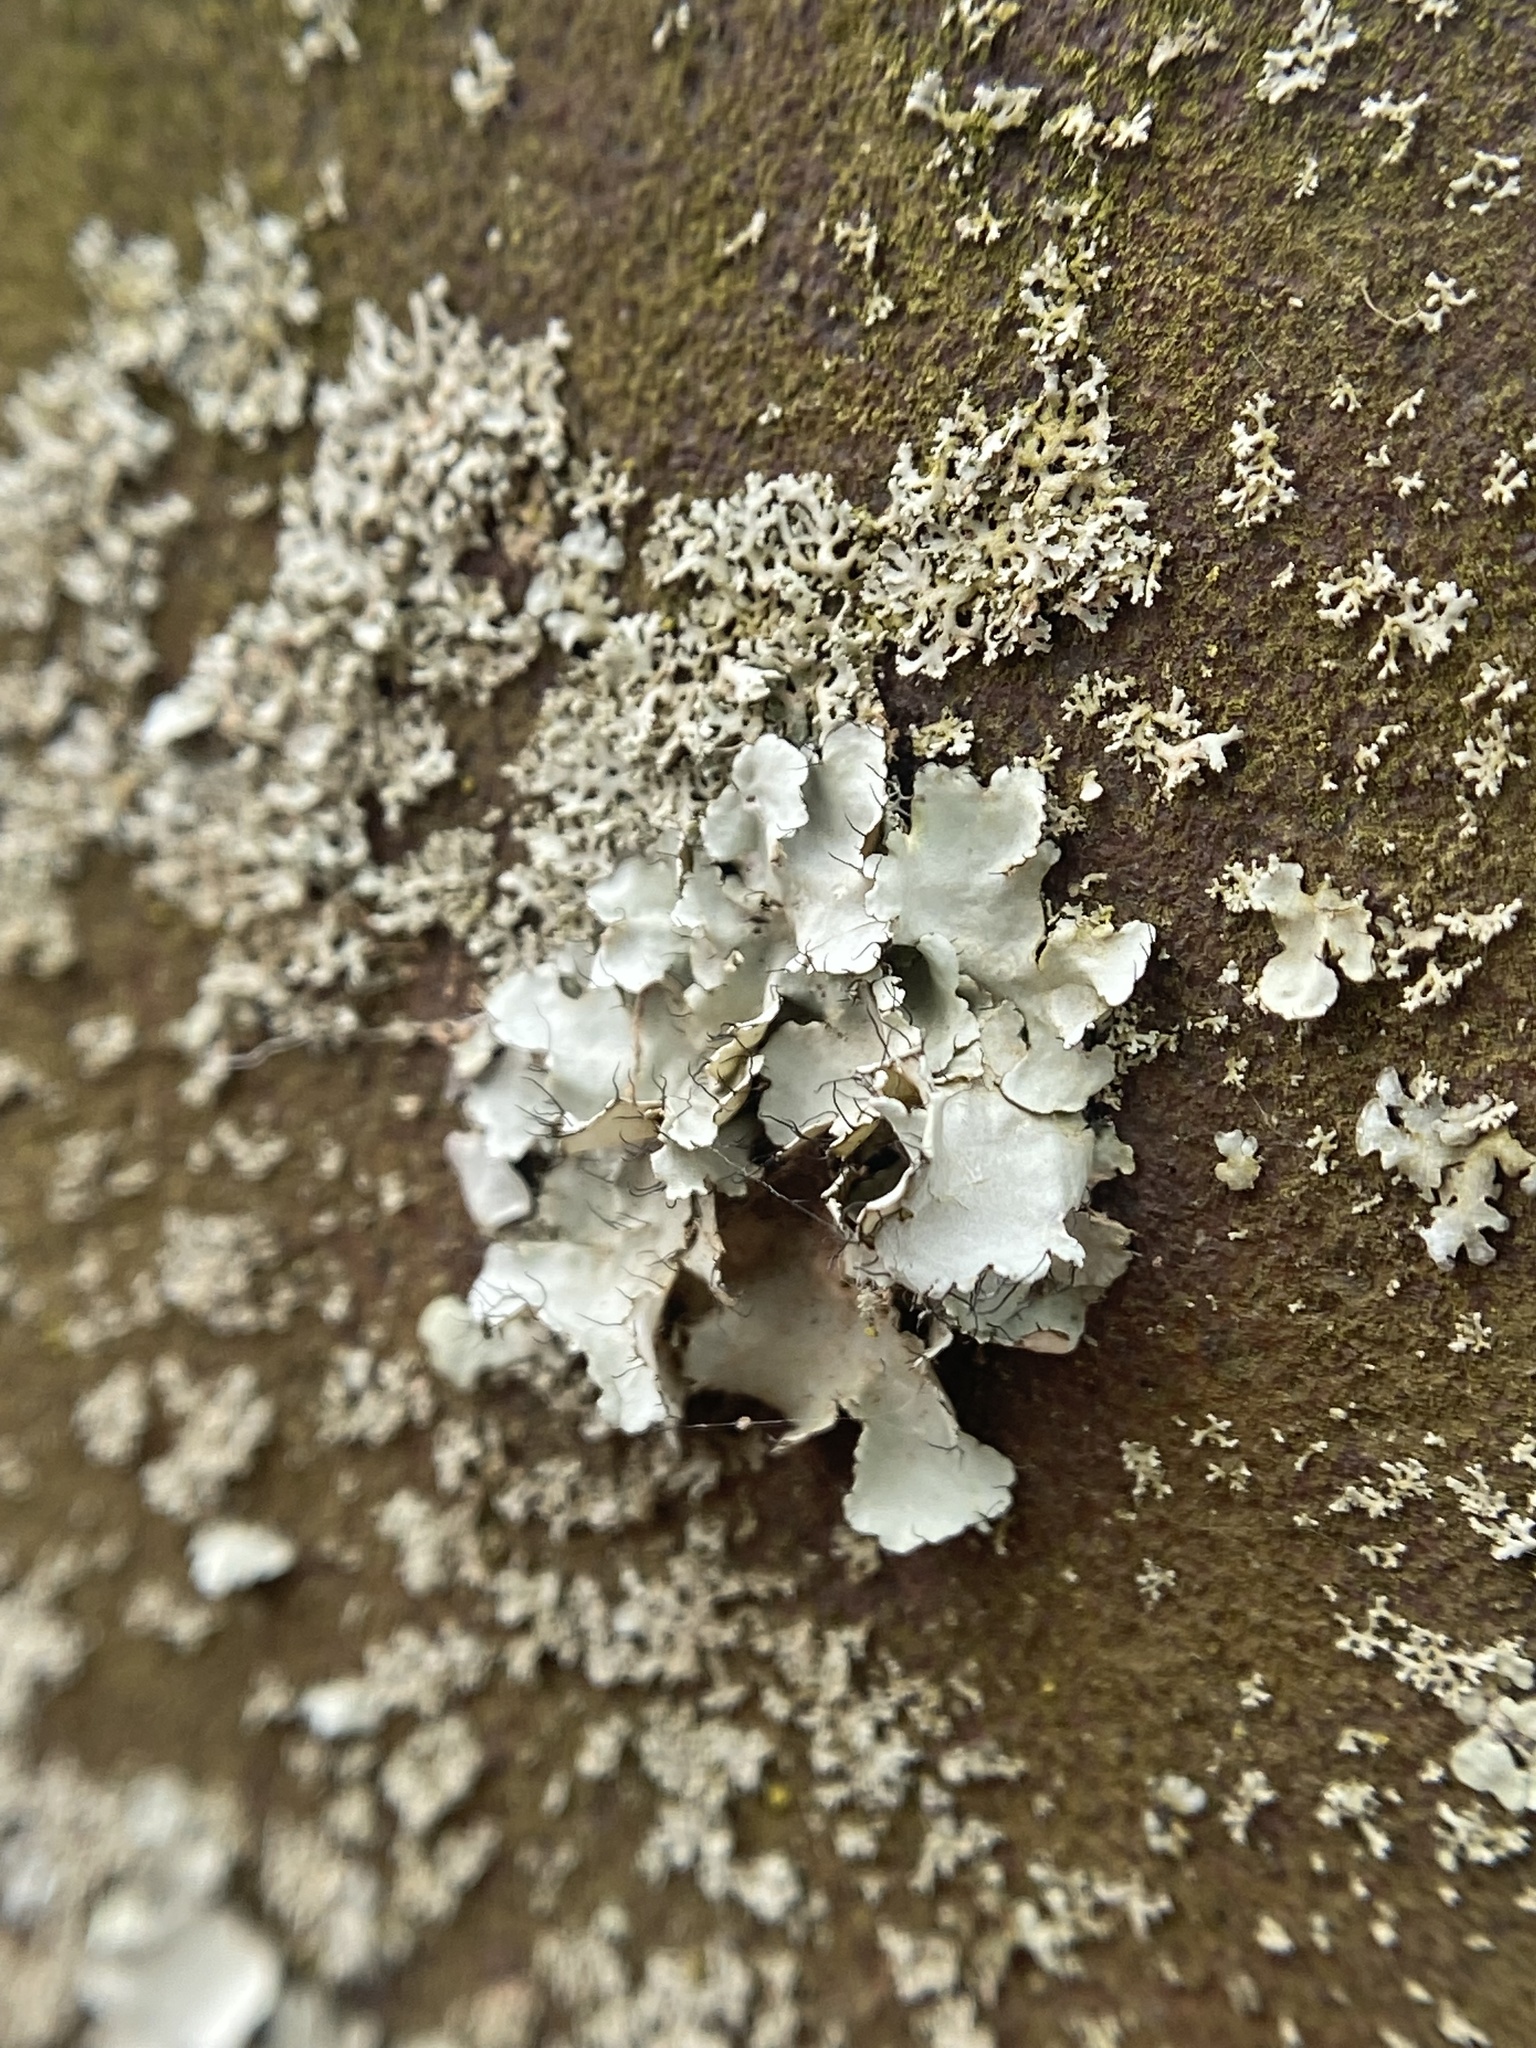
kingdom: Fungi
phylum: Ascomycota
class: Lecanoromycetes
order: Lecanorales
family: Parmeliaceae
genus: Parmotrema
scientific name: Parmotrema hypotropum
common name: Powdered ruffle lichen
